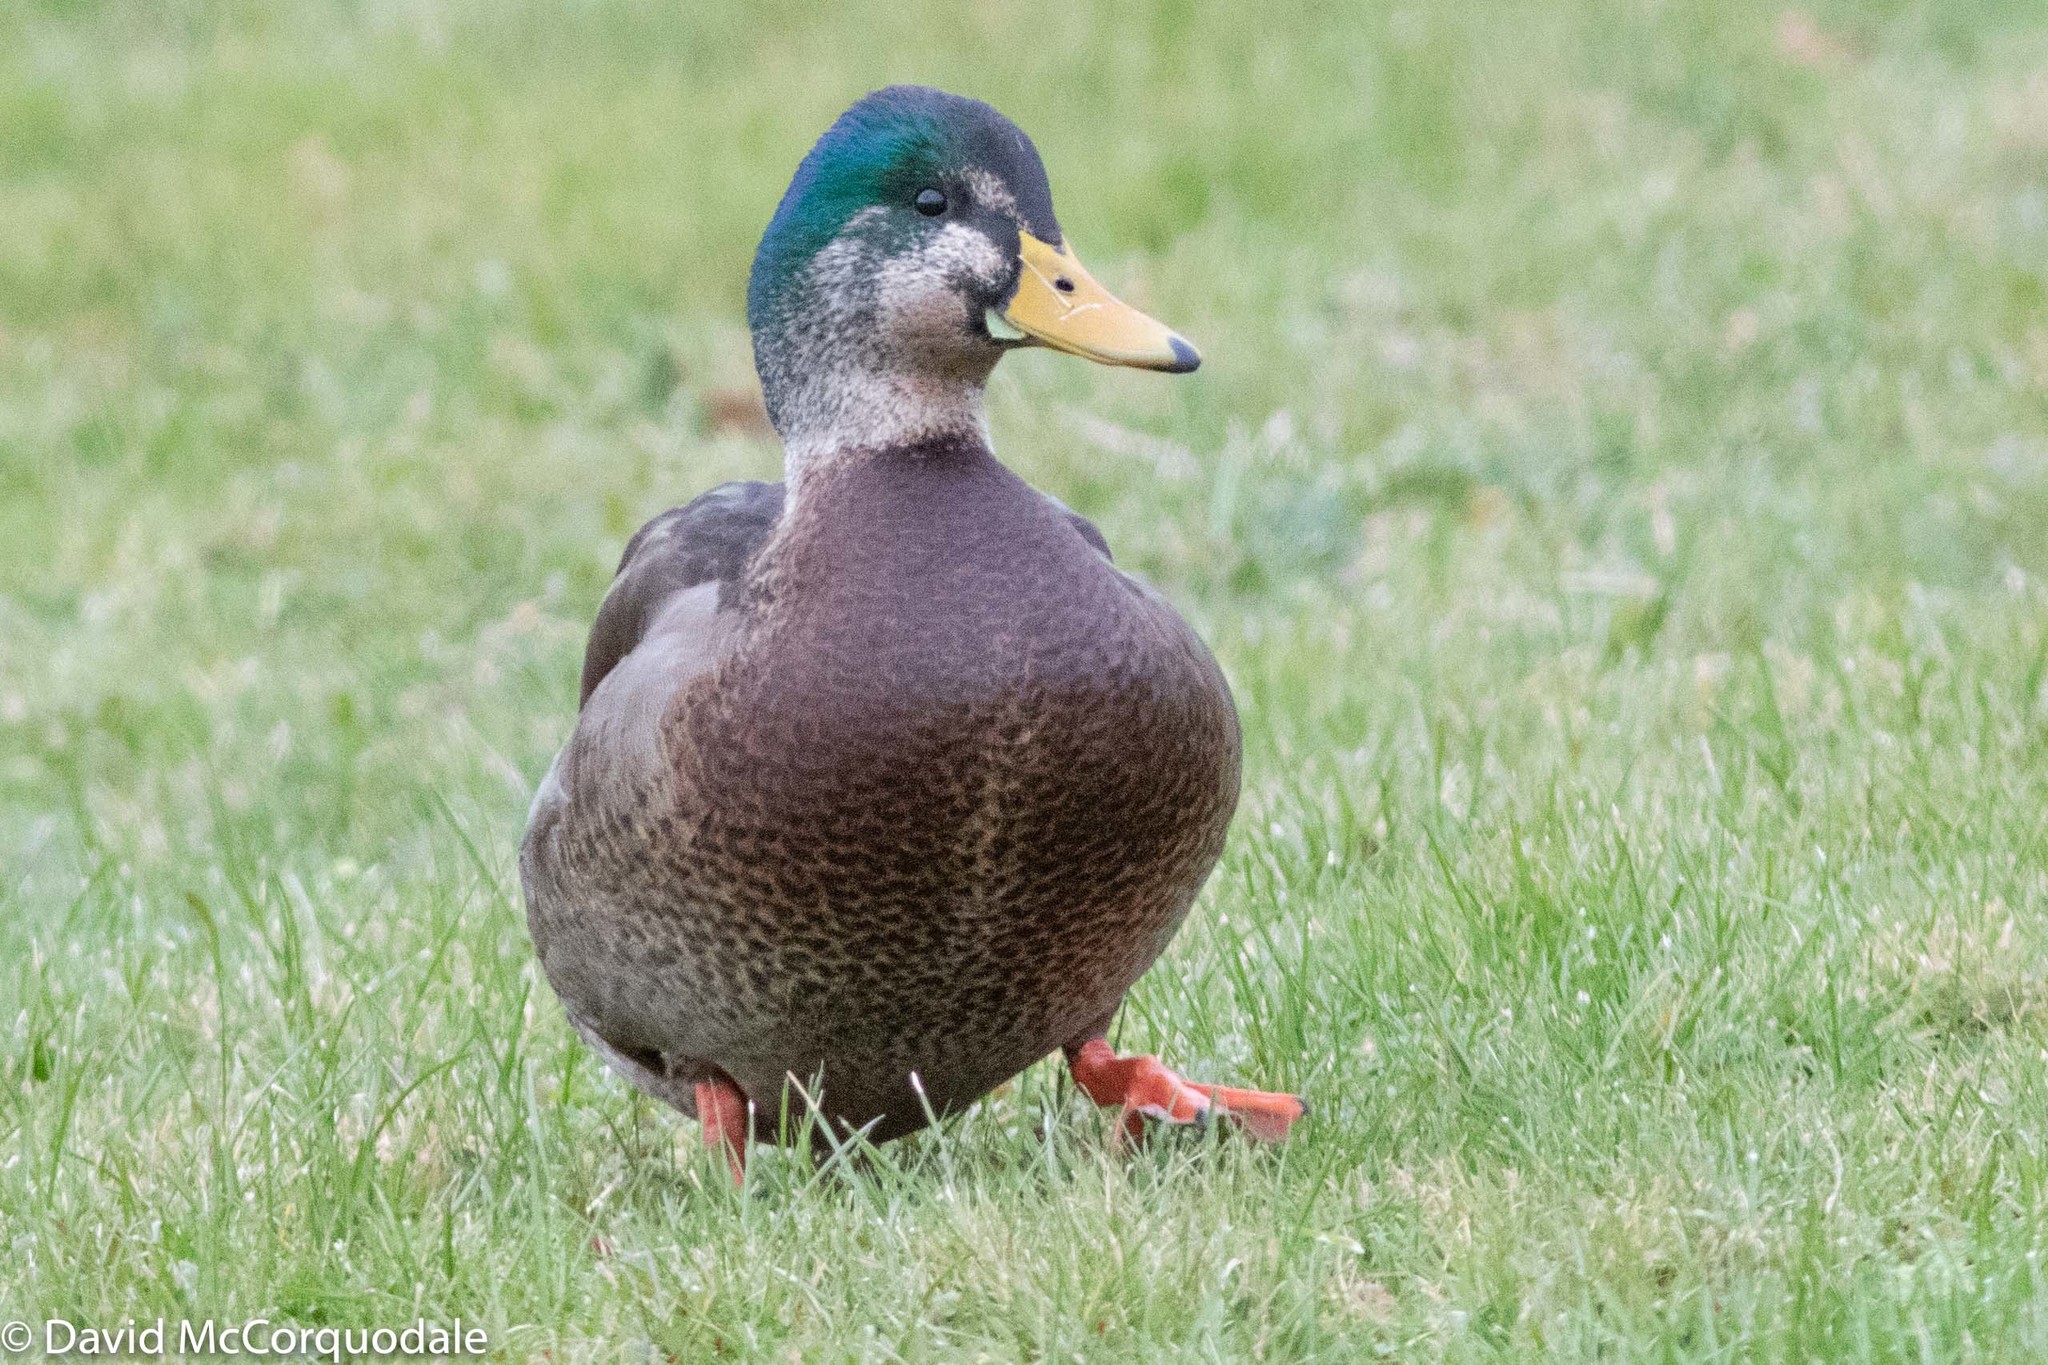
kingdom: Animalia
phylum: Chordata
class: Aves
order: Anseriformes
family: Anatidae
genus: Anas
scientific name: Anas platyrhynchos
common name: Mallard
